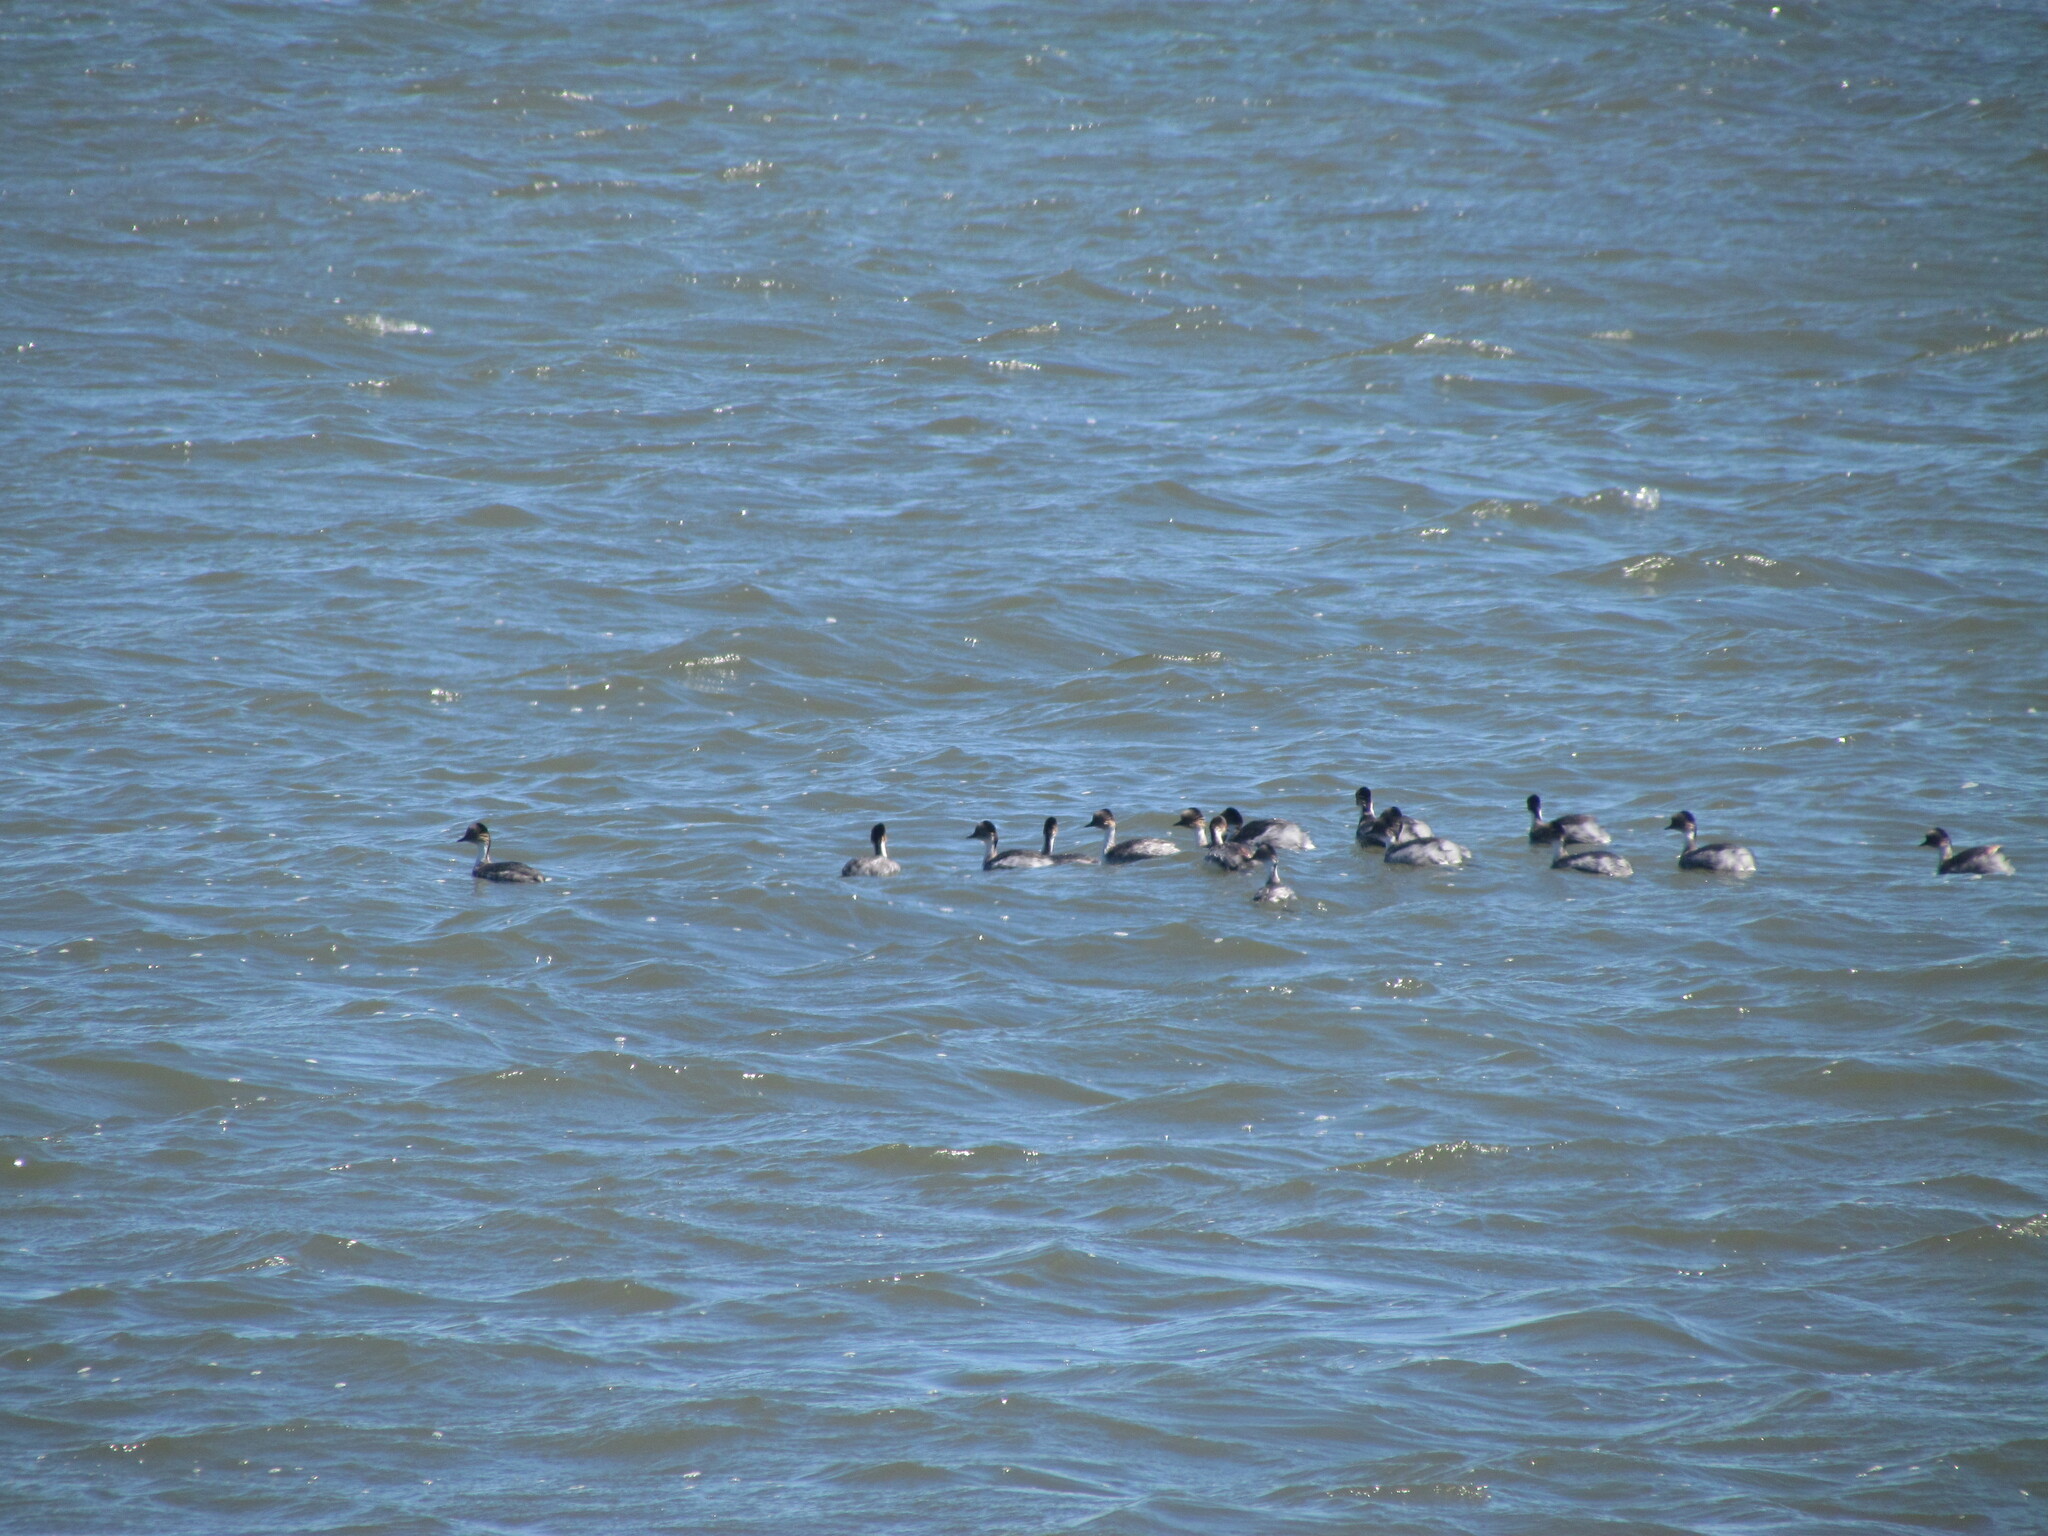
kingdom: Animalia
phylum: Chordata
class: Aves
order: Podicipediformes
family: Podicipedidae
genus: Podiceps
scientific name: Podiceps occipitalis
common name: Silvery grebe
